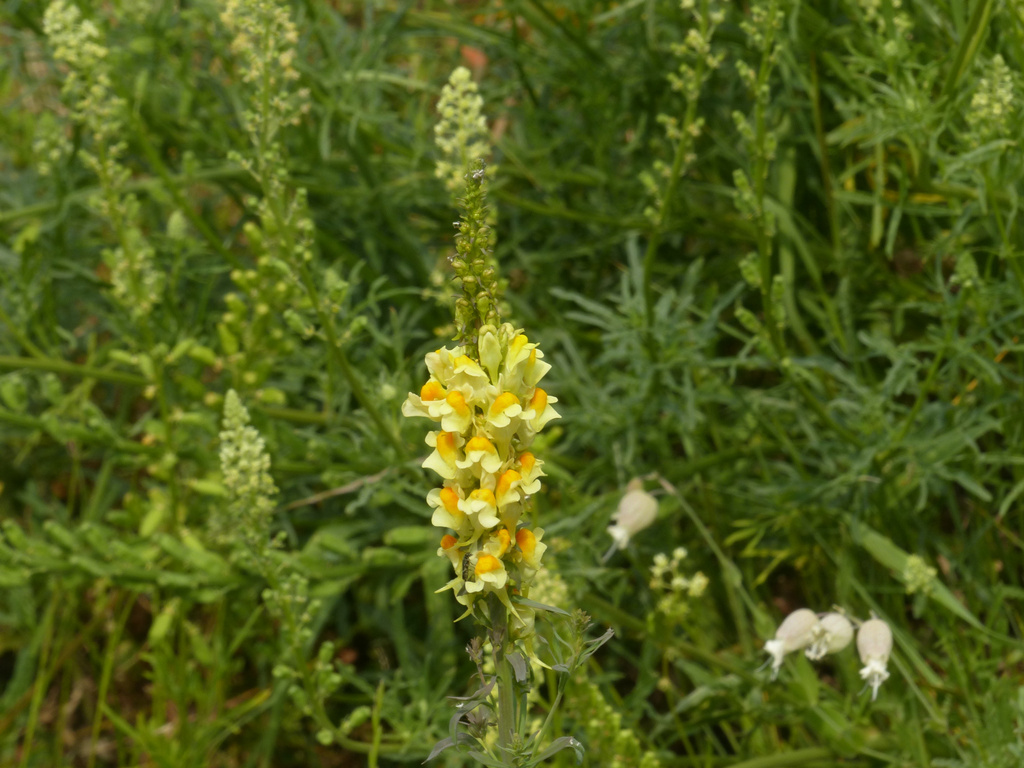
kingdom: Plantae
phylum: Tracheophyta
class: Magnoliopsida
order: Lamiales
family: Plantaginaceae
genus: Linaria
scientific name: Linaria vulgaris
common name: Butter and eggs
